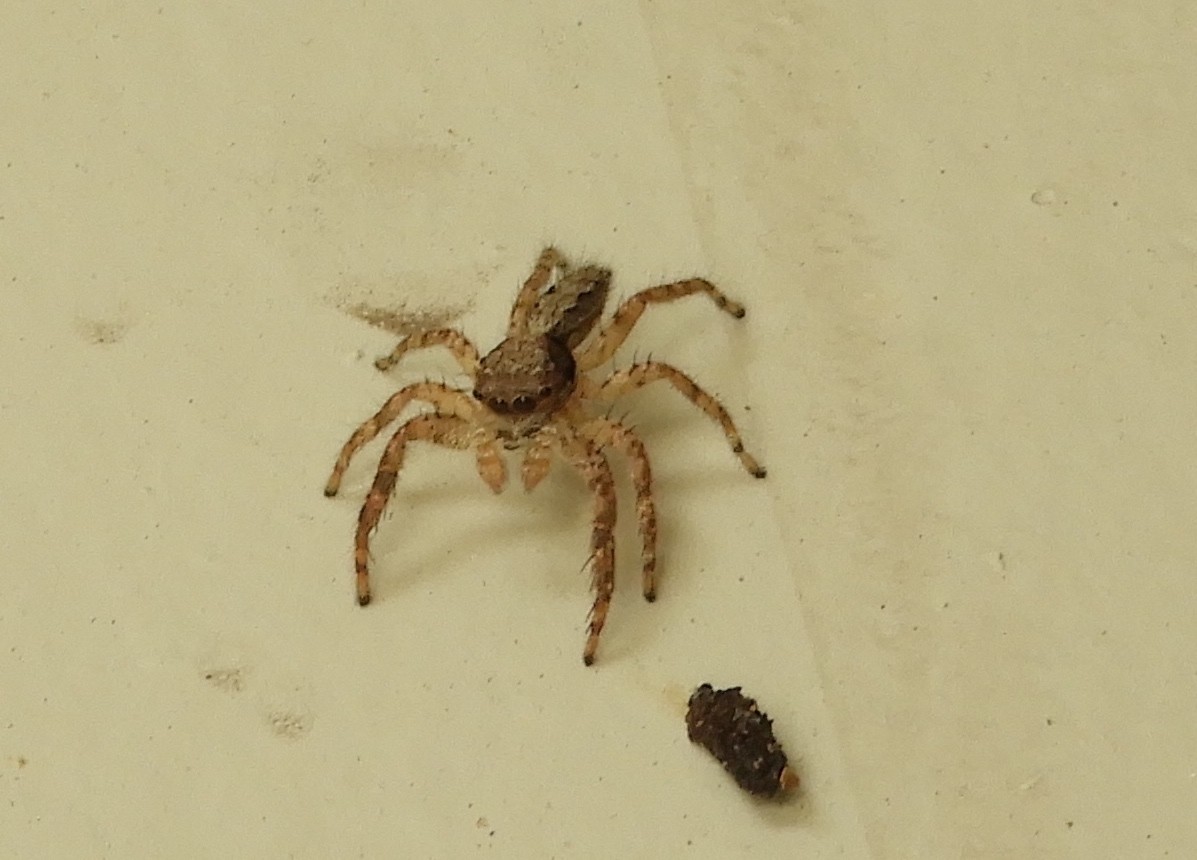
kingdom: Animalia
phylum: Arthropoda
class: Arachnida
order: Araneae
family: Salticidae
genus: Balmaceda
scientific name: Balmaceda
